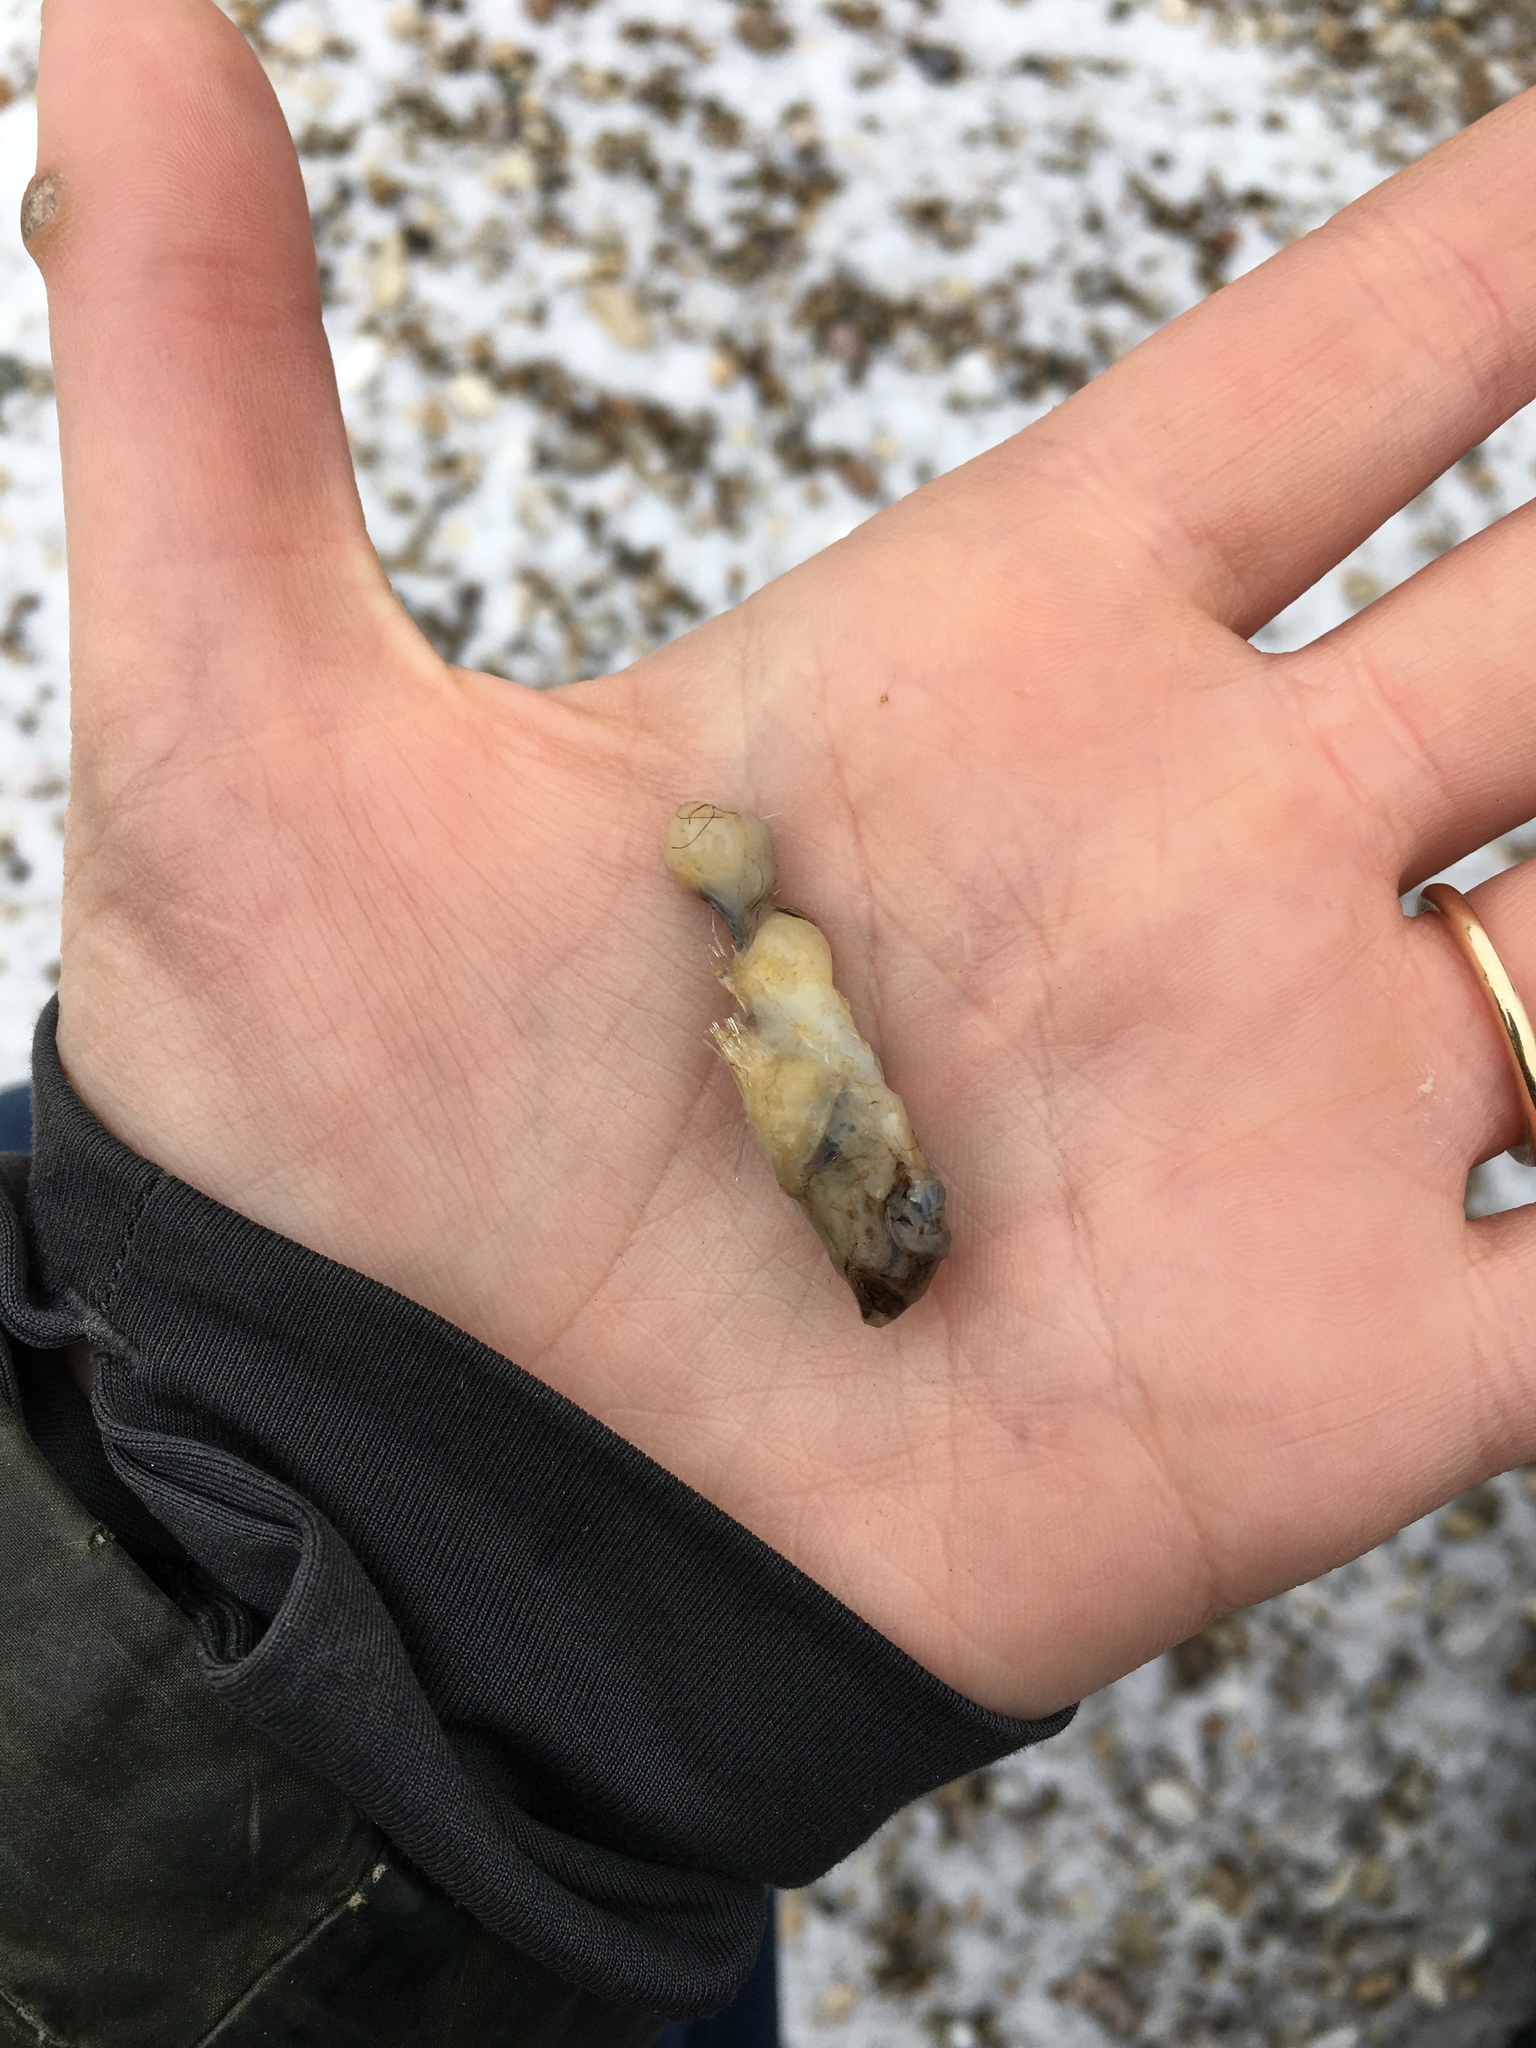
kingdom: Animalia
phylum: Chordata
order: Perciformes
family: Gobiidae
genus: Neogobius
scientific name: Neogobius melanostomus
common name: Round goby
